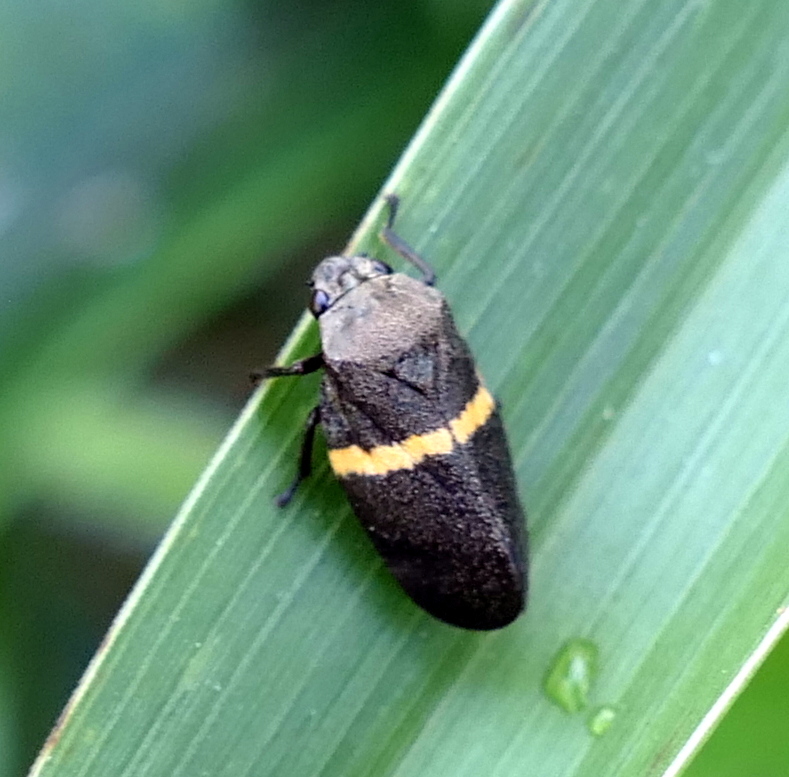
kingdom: Animalia
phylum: Arthropoda
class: Insecta
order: Hemiptera
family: Cercopidae
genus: Aeneolamia
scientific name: Aeneolamia colon
